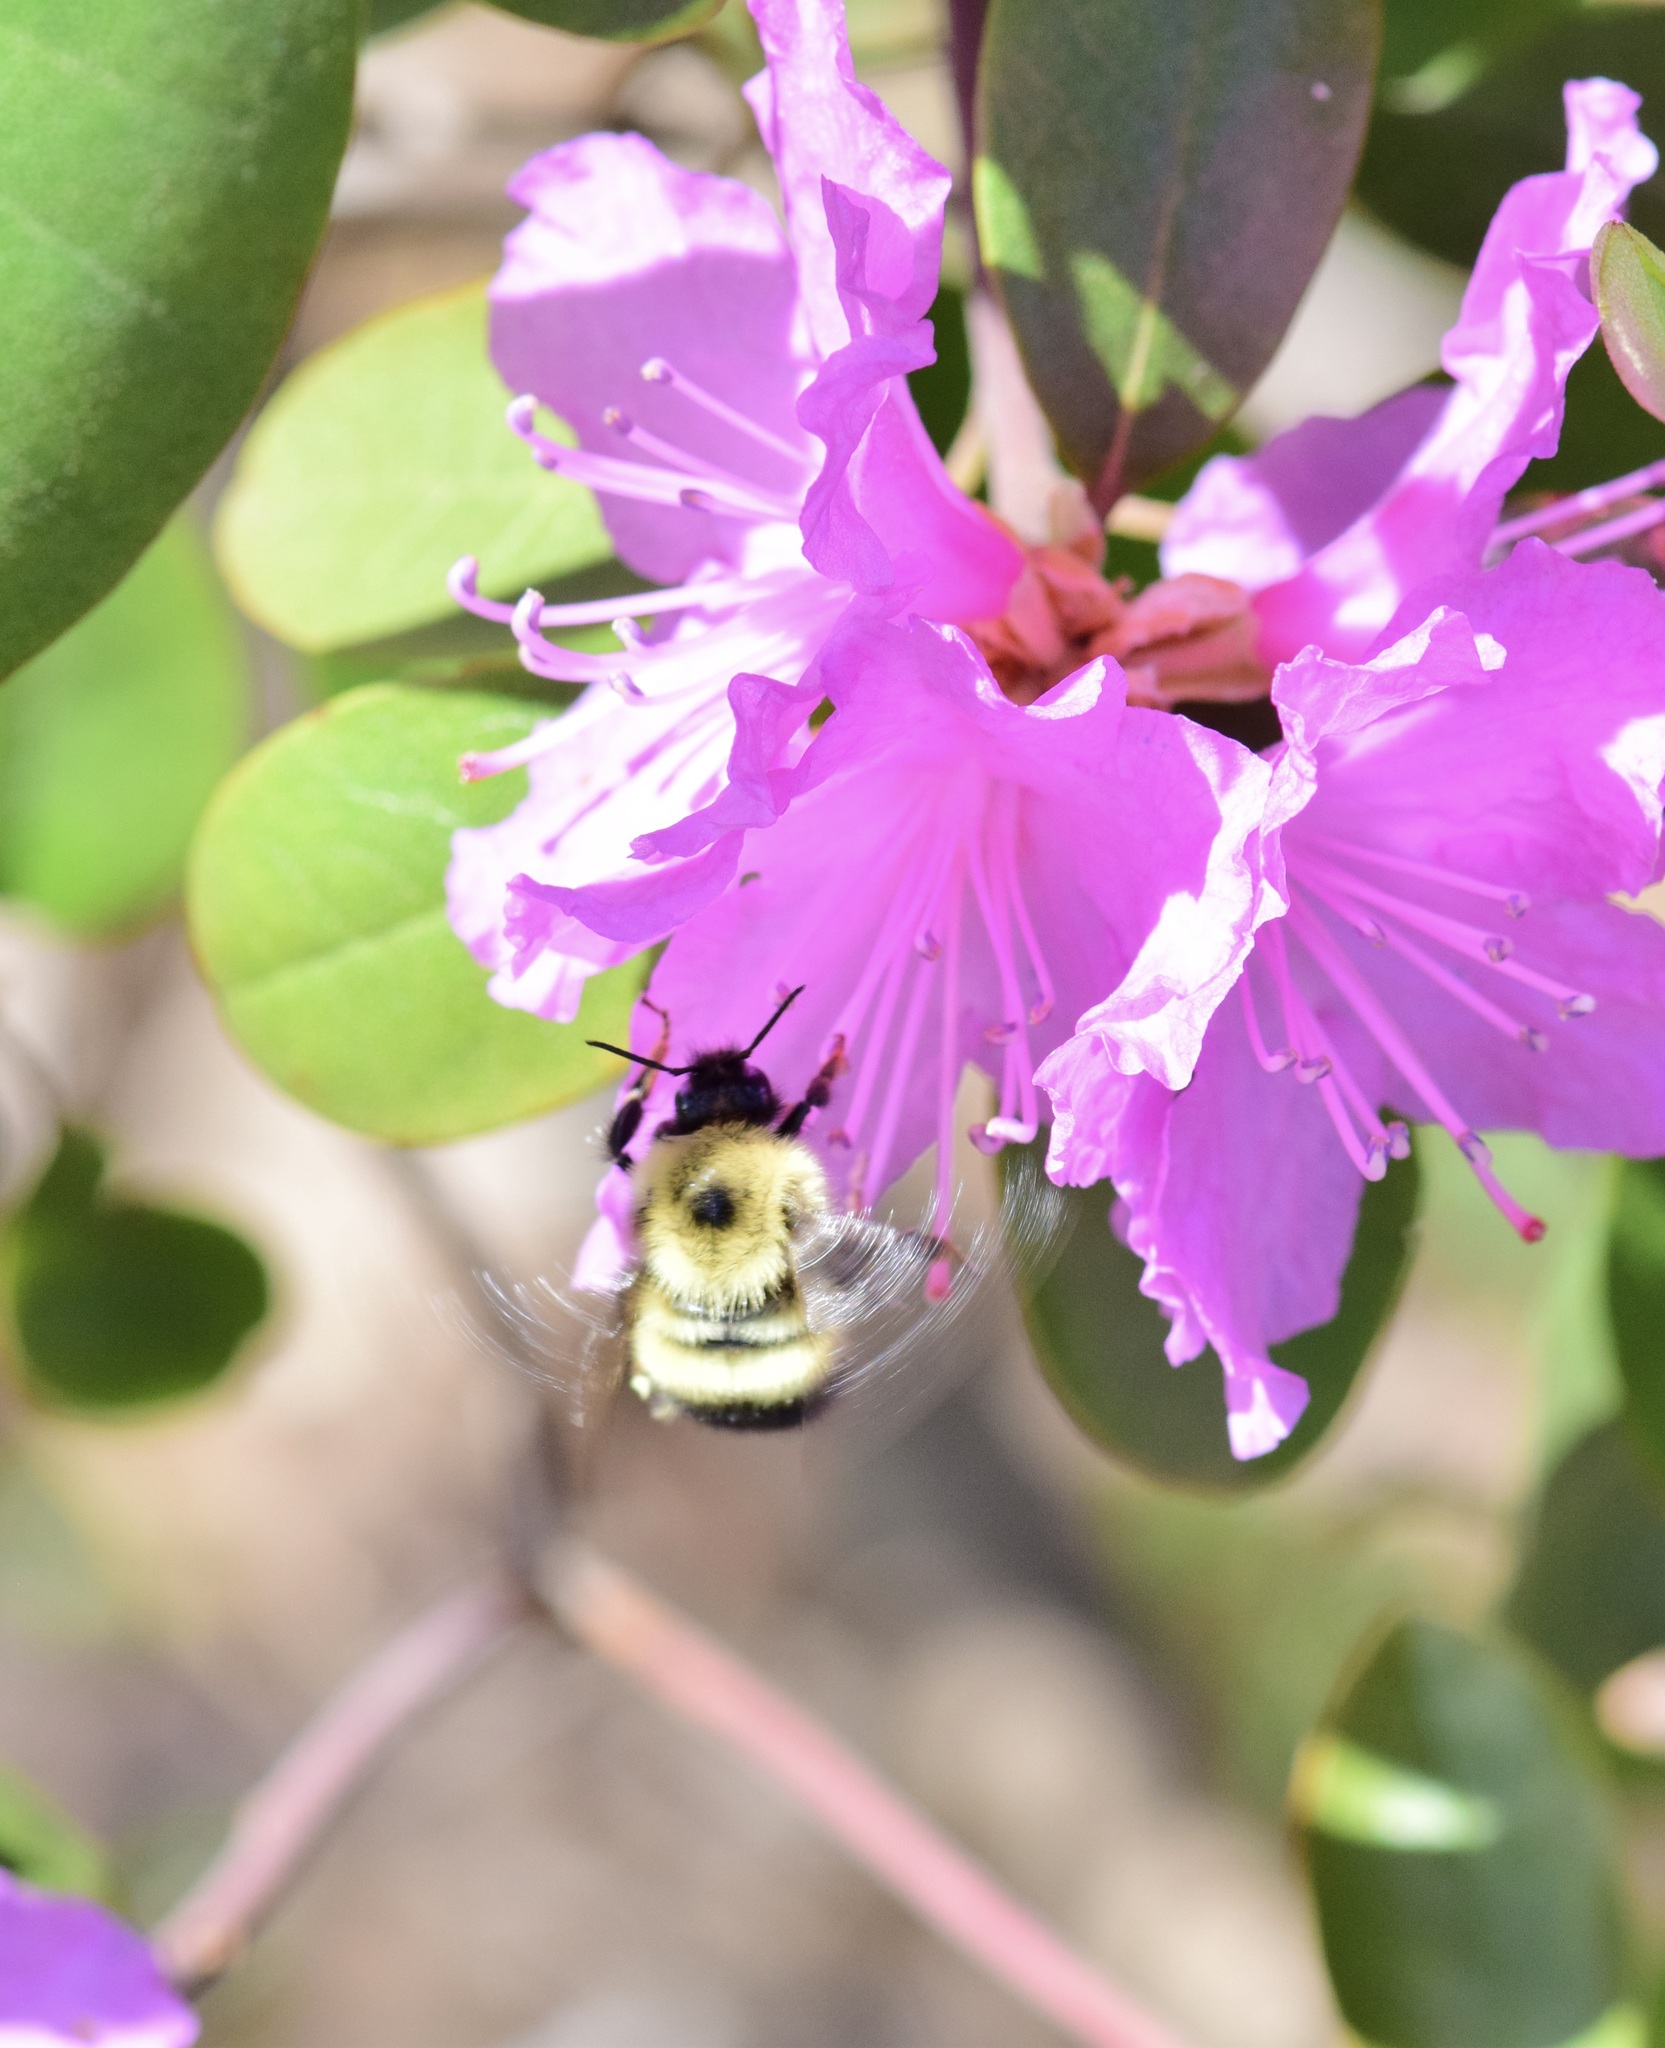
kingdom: Animalia
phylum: Arthropoda
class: Insecta
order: Hymenoptera
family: Apidae
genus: Pyrobombus
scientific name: Pyrobombus
